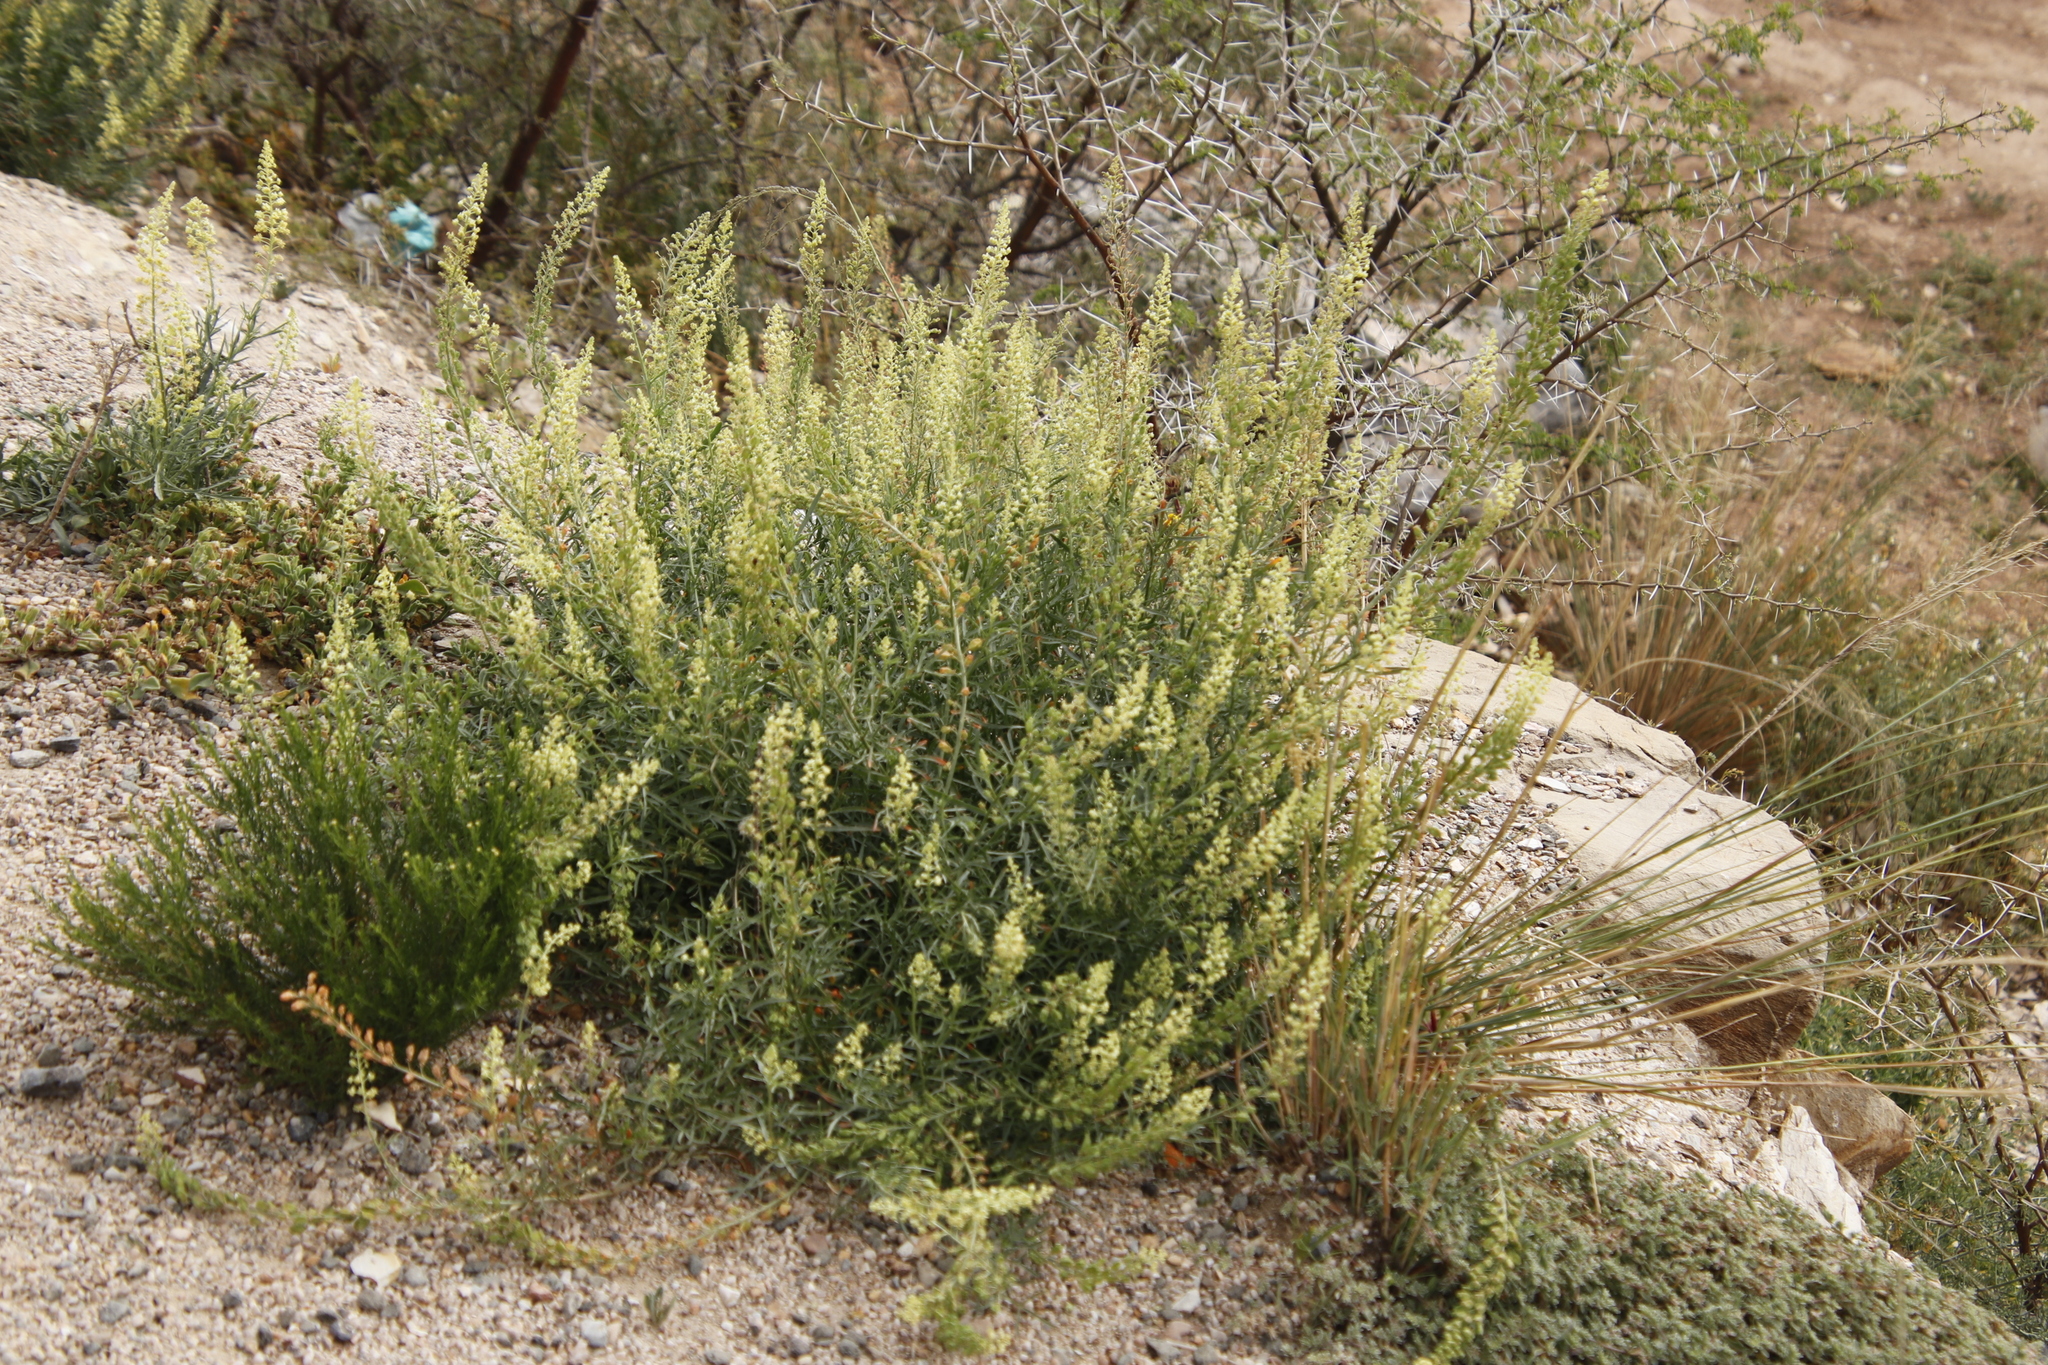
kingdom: Plantae
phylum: Tracheophyta
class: Magnoliopsida
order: Brassicales
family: Resedaceae
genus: Reseda
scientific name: Reseda lutea
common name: Wild mignonette
